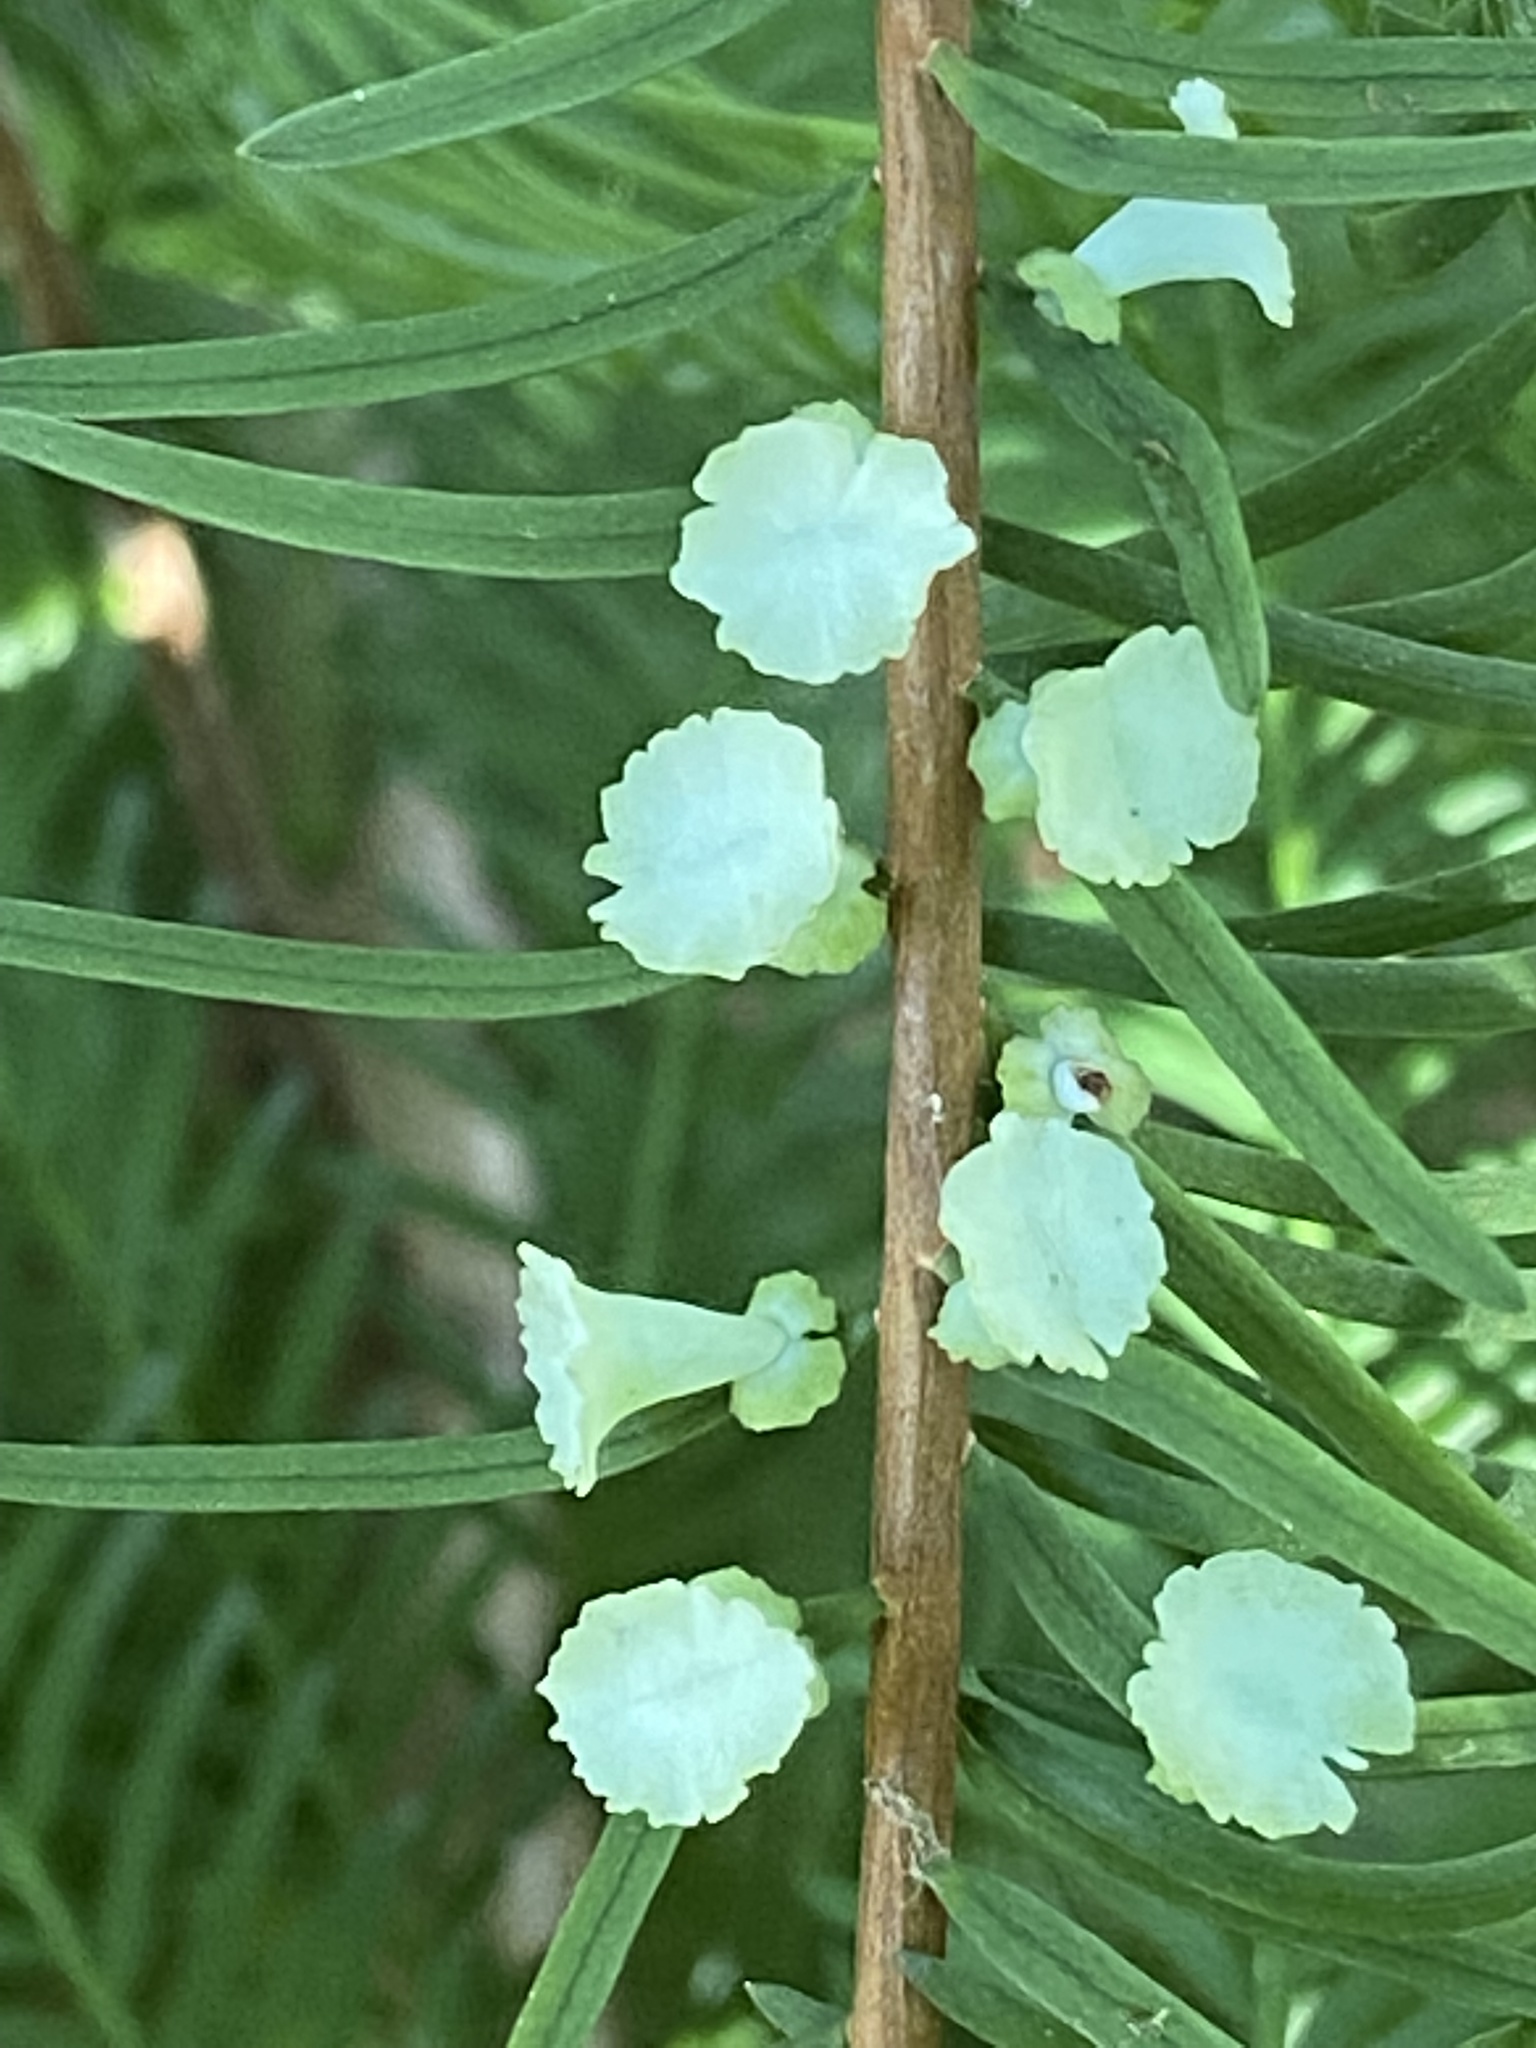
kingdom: Animalia
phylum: Arthropoda
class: Insecta
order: Diptera
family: Cecidomyiidae
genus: Taxodiomyia
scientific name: Taxodiomyia cupressi
